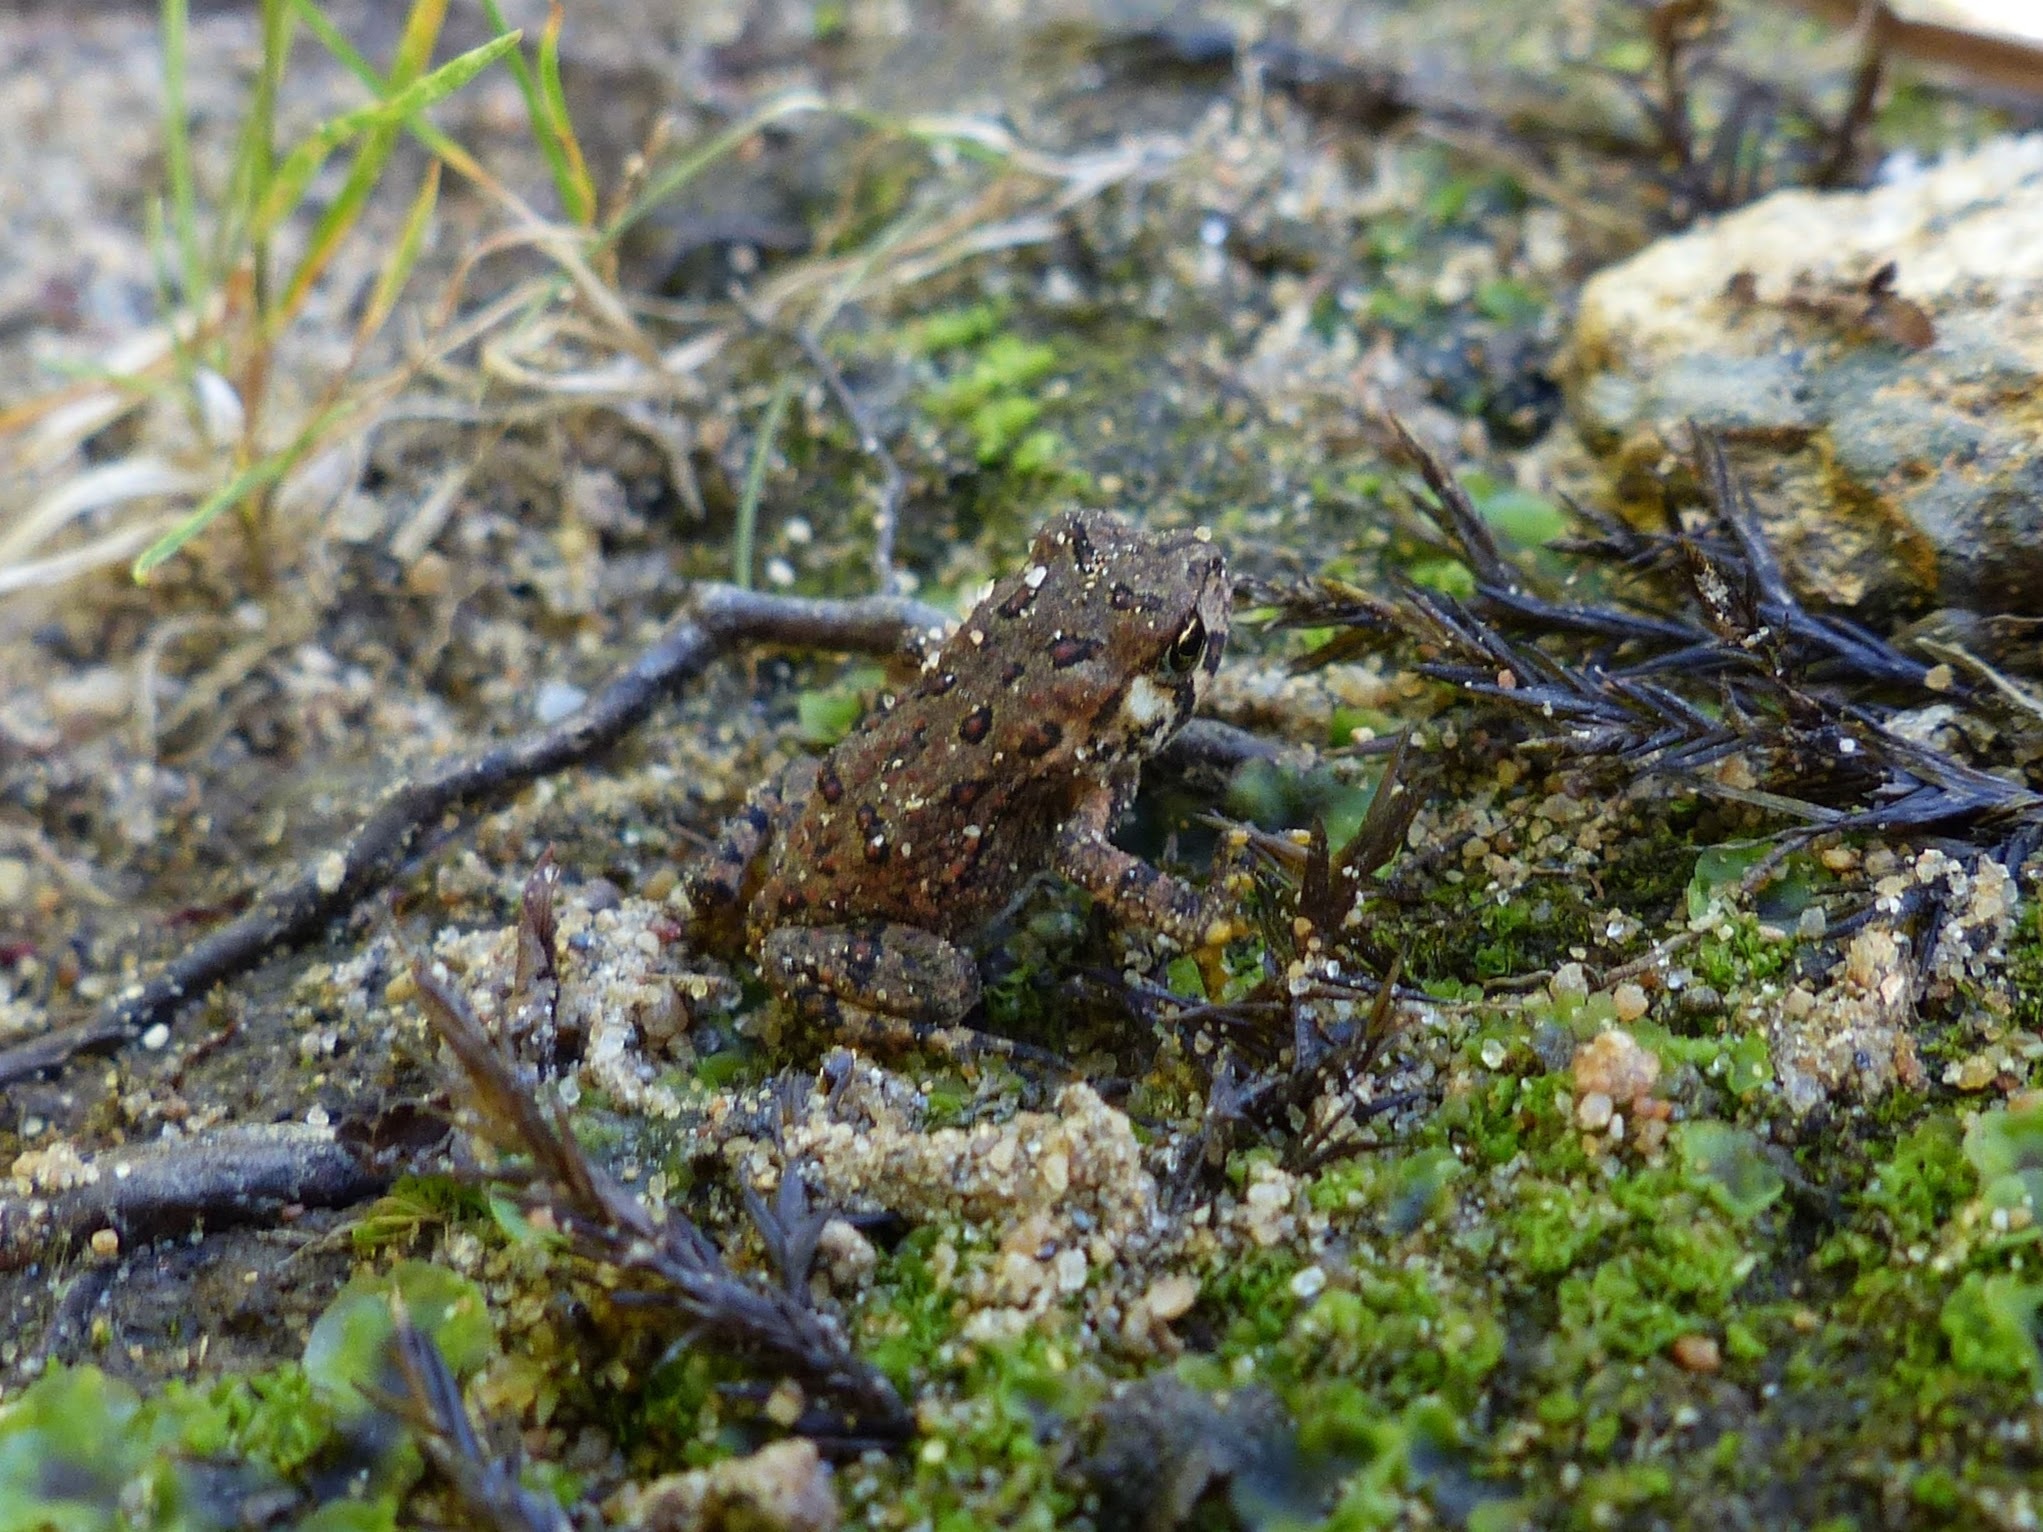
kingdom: Animalia
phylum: Chordata
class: Amphibia
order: Anura
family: Bufonidae
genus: Anaxyrus
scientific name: Anaxyrus americanus
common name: American toad
